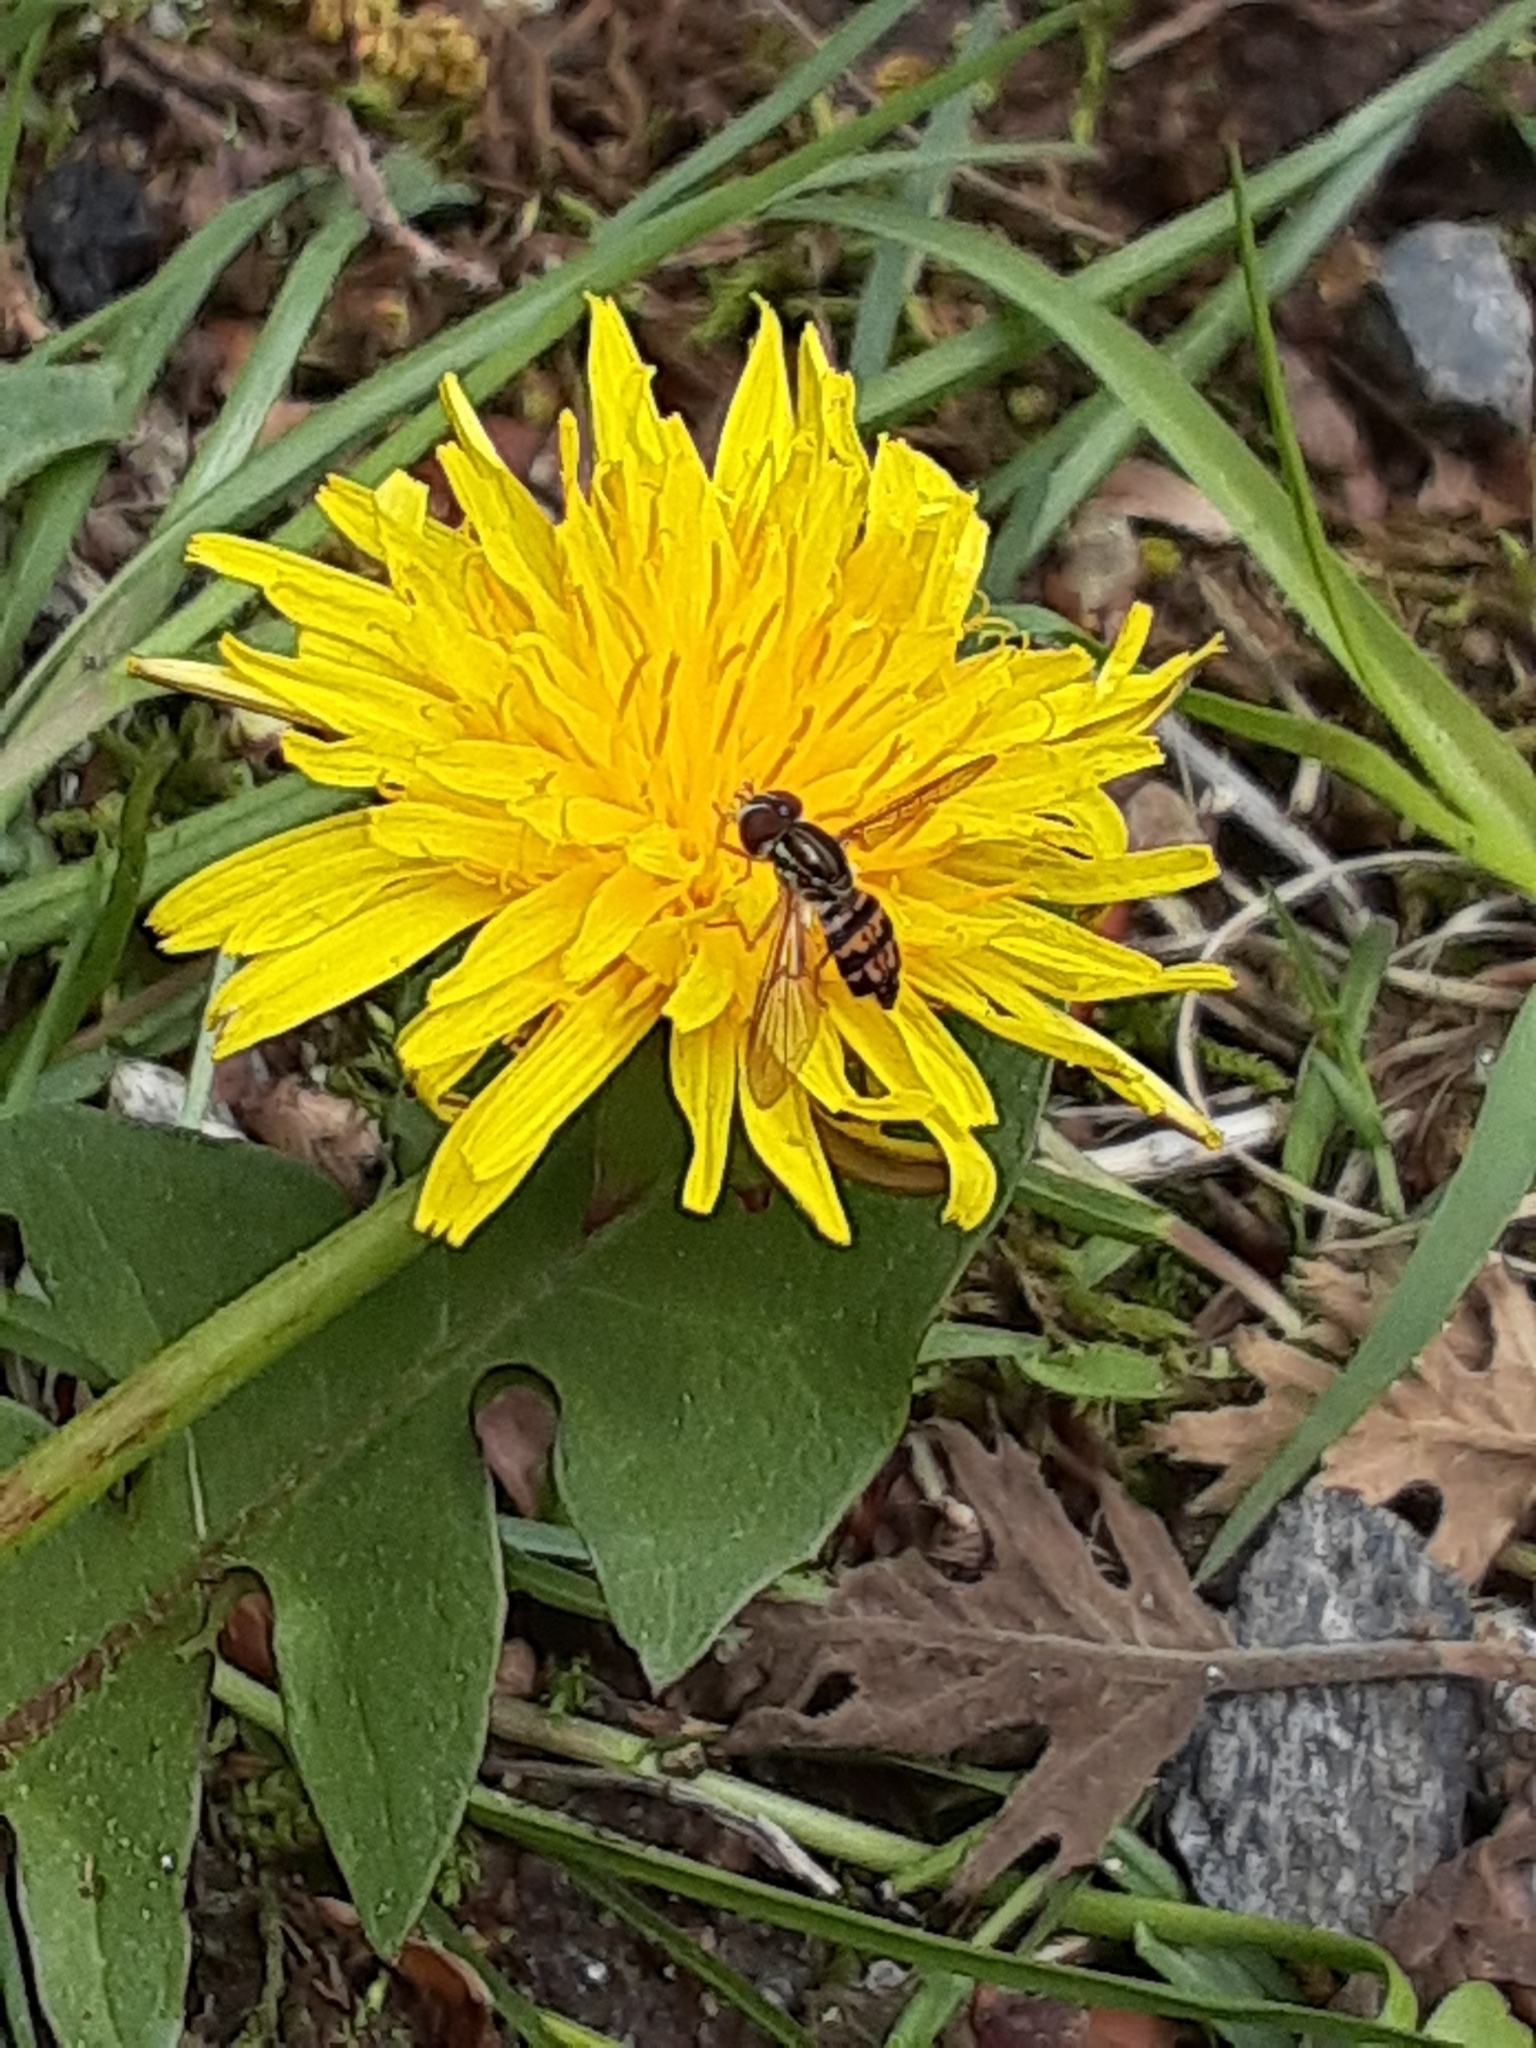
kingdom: Animalia
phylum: Arthropoda
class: Insecta
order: Diptera
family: Syrphidae
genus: Toxomerus
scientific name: Toxomerus geminatus
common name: Eastern calligrapher
